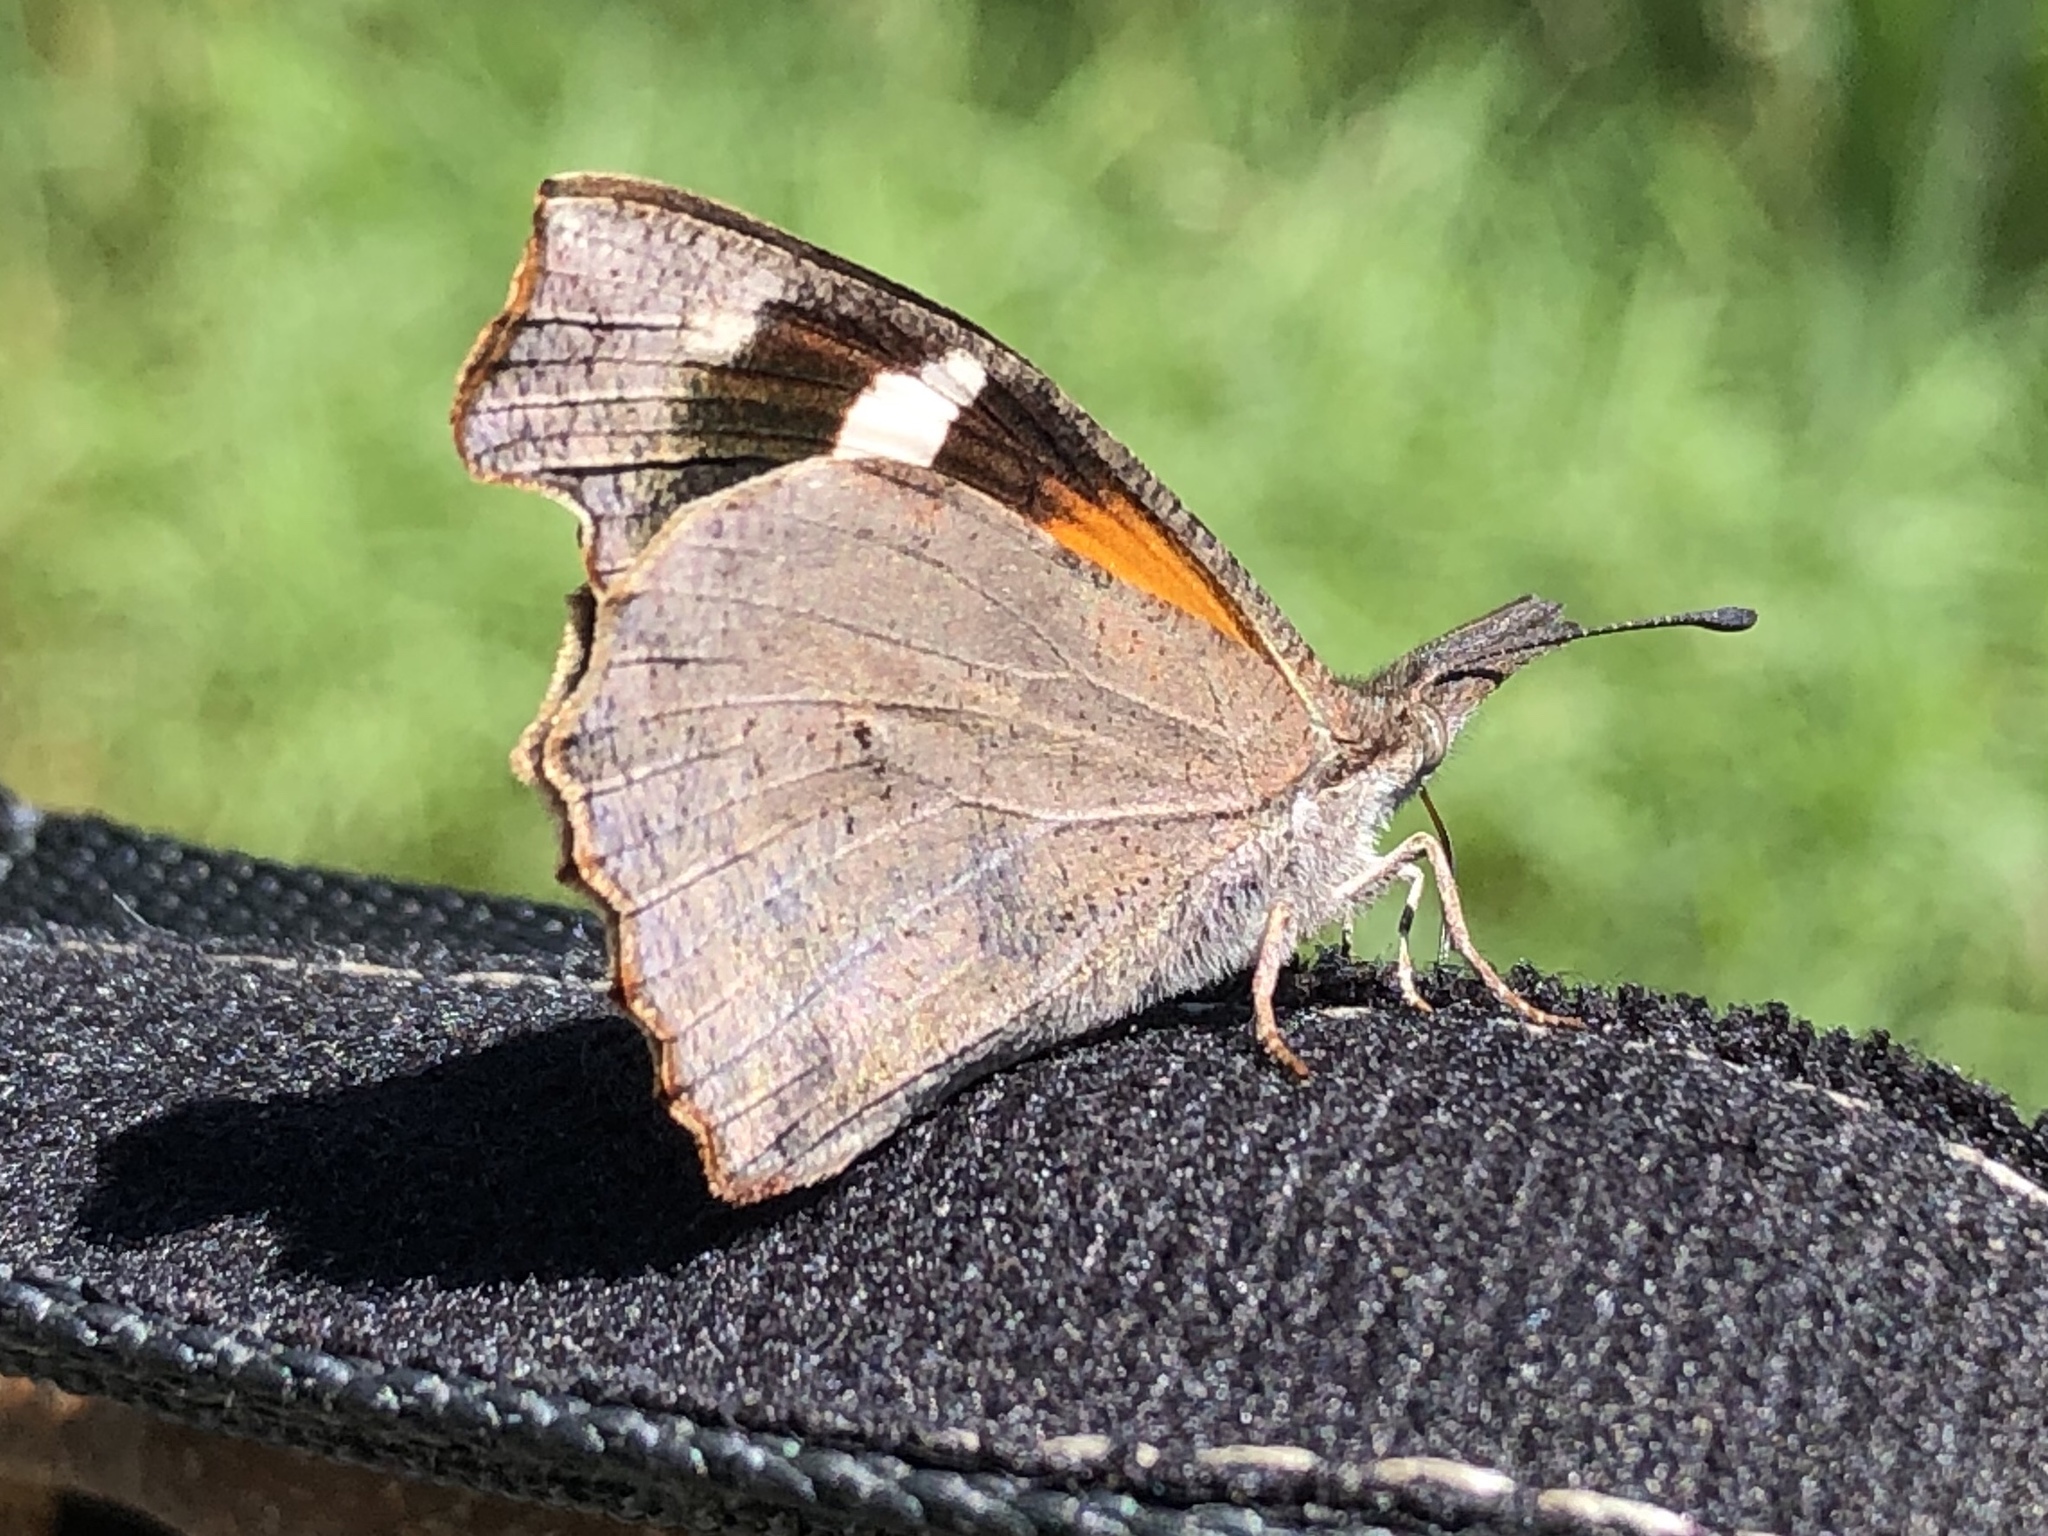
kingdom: Animalia
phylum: Arthropoda
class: Insecta
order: Lepidoptera
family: Nymphalidae
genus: Libytheana
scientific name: Libytheana carinenta
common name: American snout
